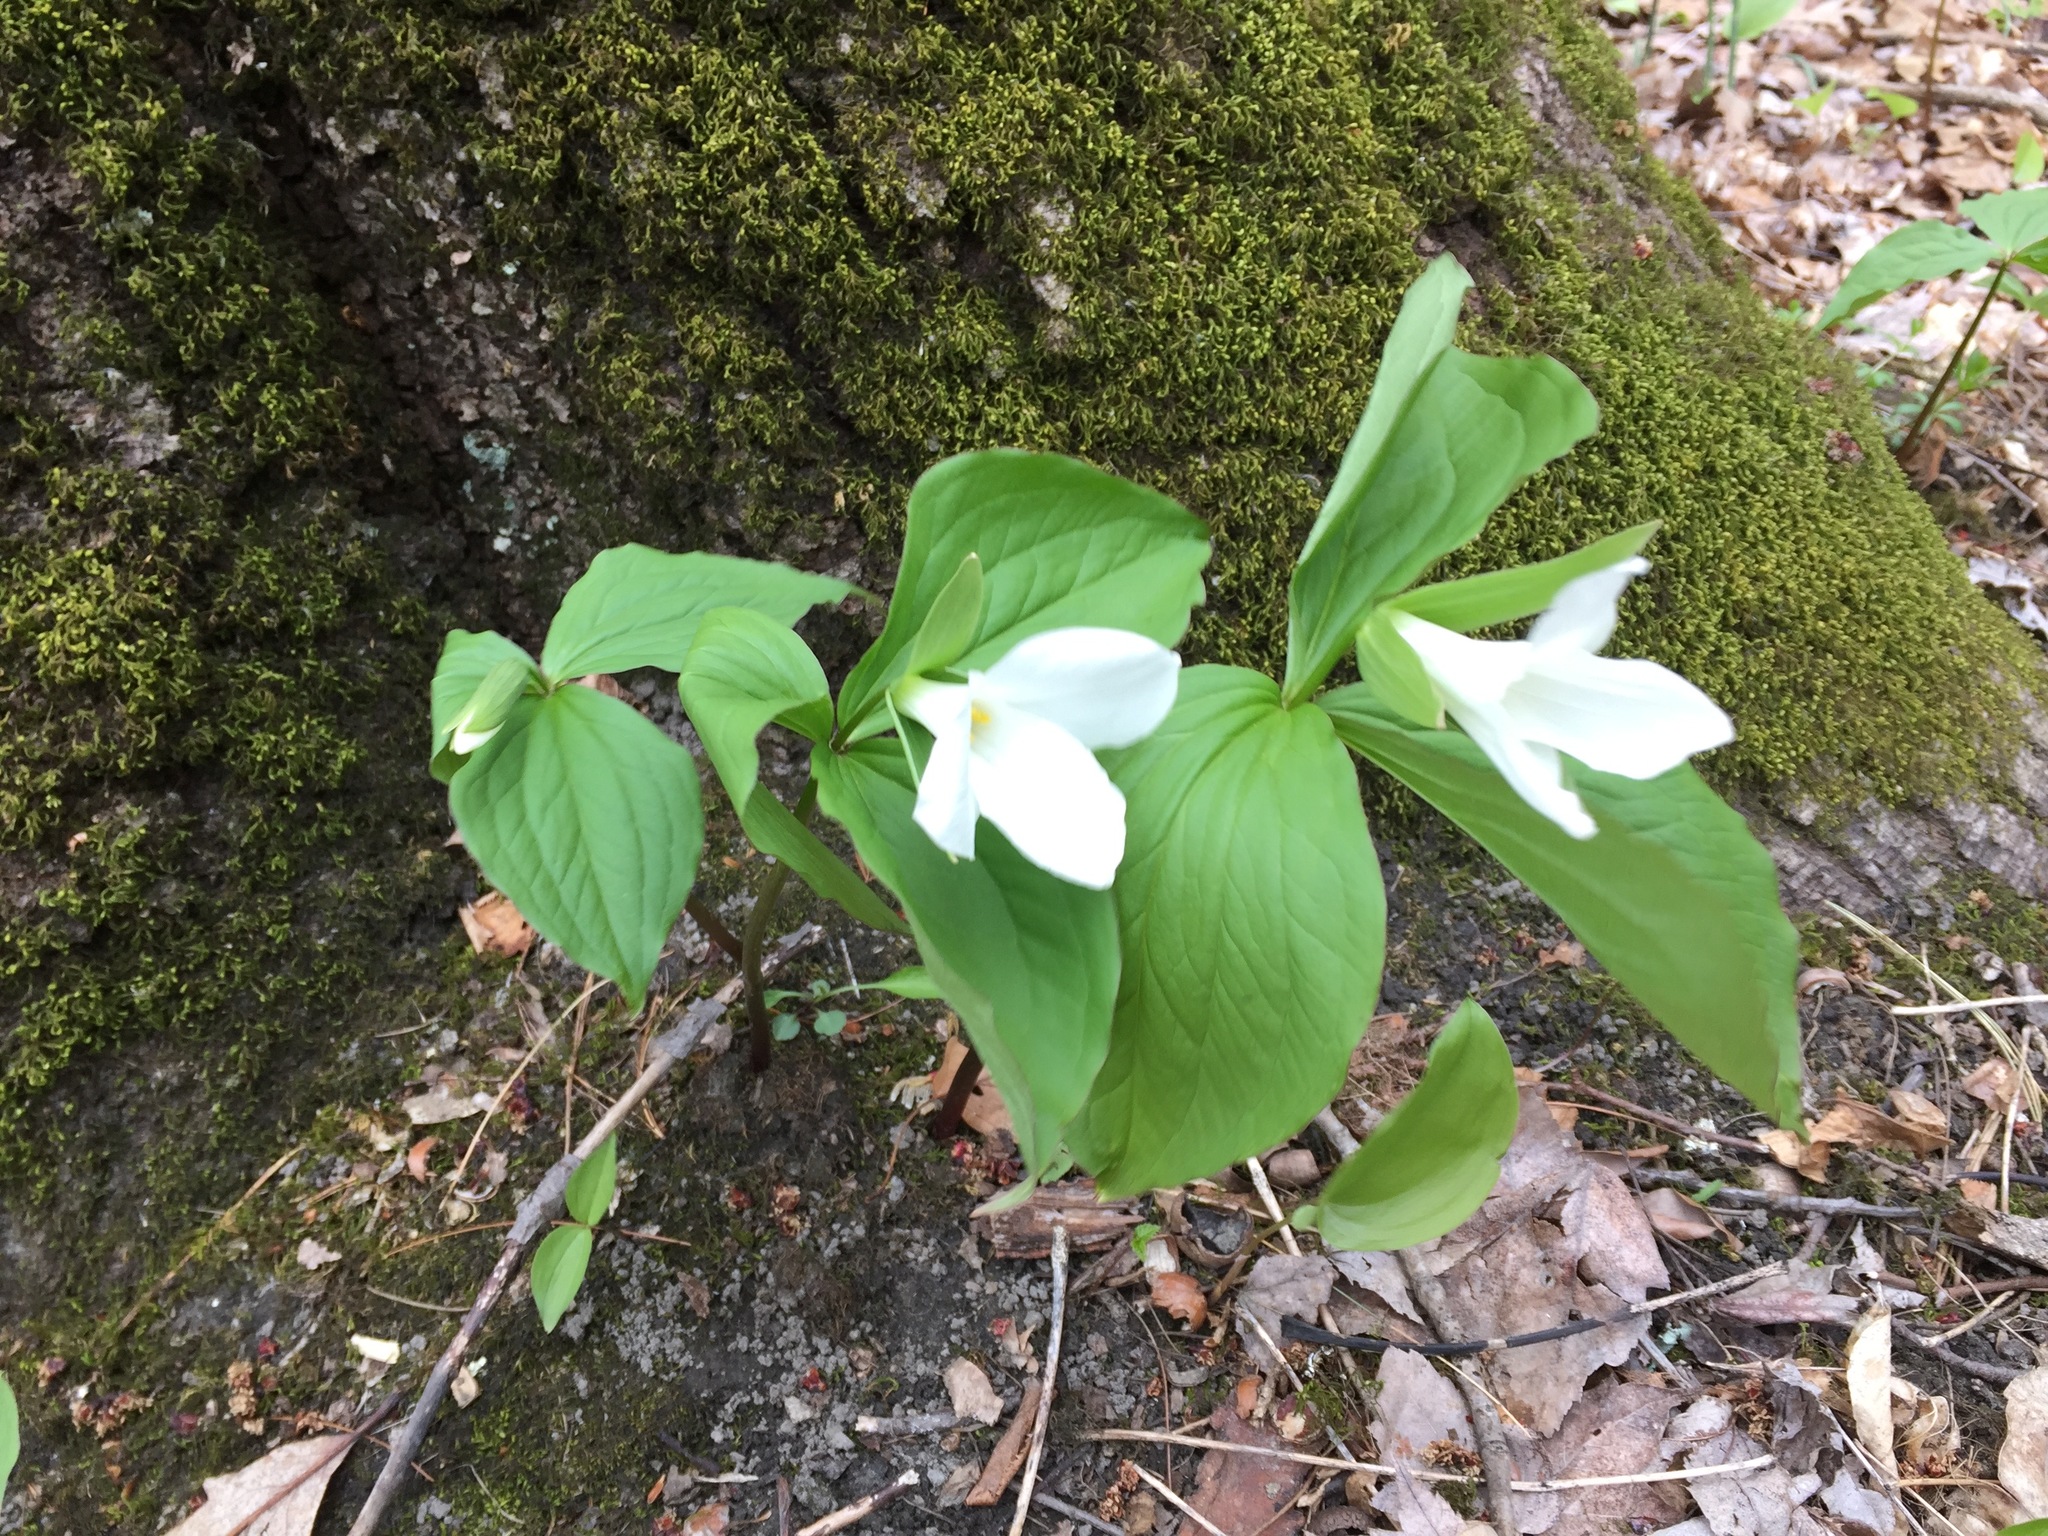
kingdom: Plantae
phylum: Tracheophyta
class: Liliopsida
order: Liliales
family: Melanthiaceae
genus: Trillium
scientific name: Trillium grandiflorum
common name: Great white trillium
